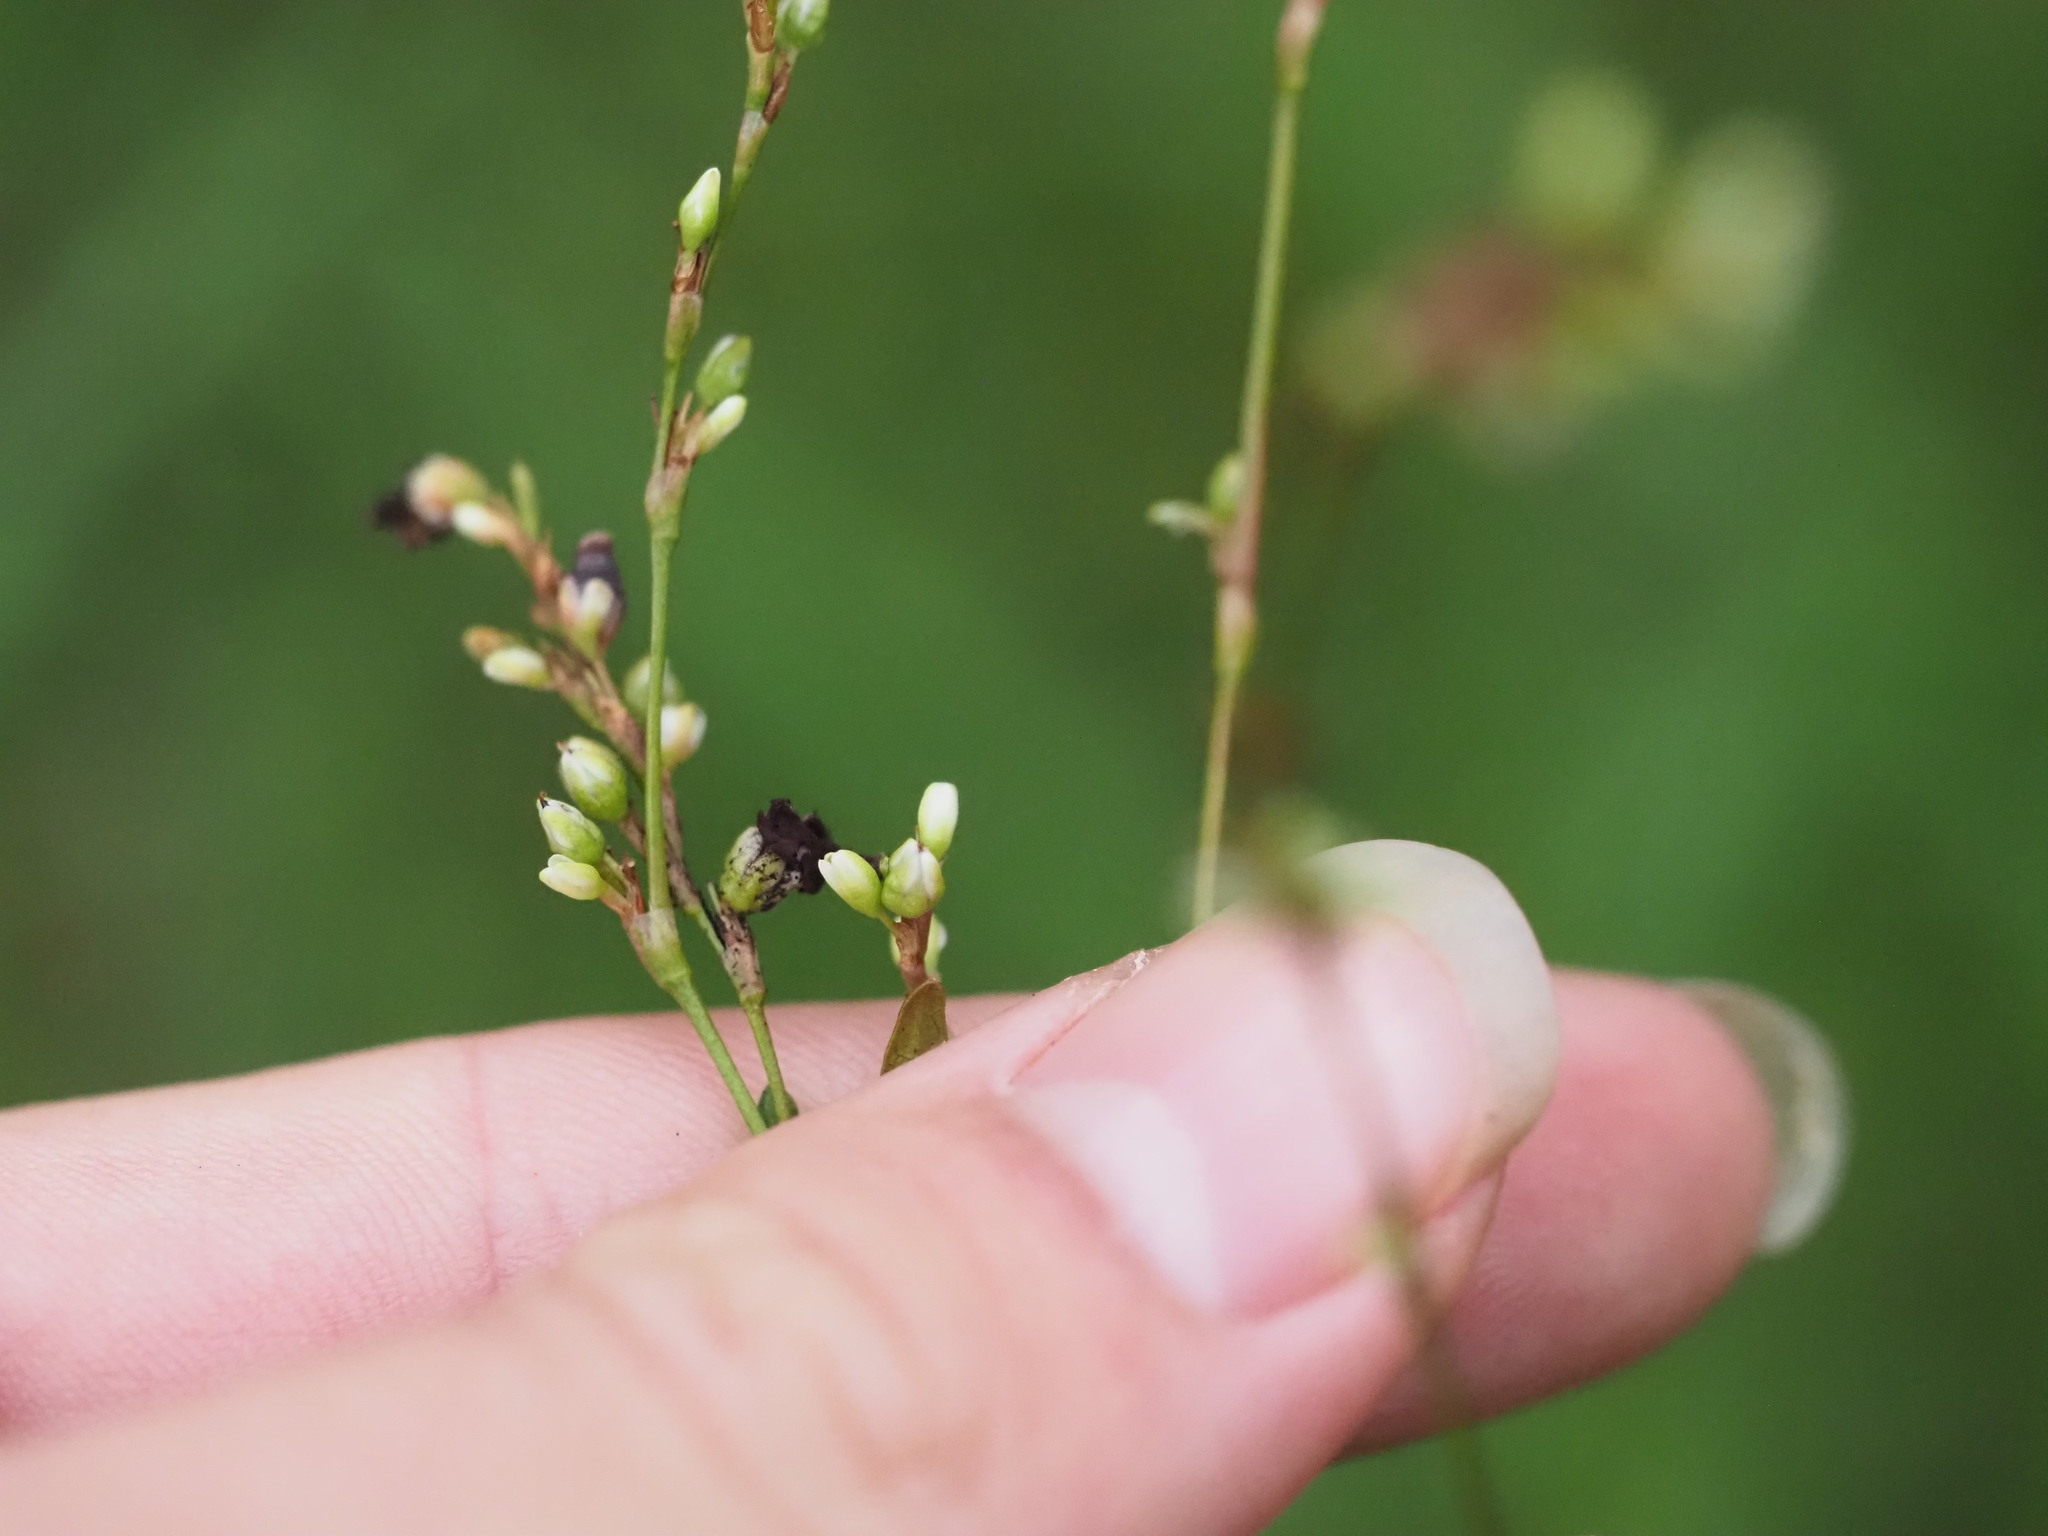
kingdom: Plantae
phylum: Tracheophyta
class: Magnoliopsida
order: Caryophyllales
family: Polygonaceae
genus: Persicaria
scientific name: Persicaria punctata
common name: Dotted smartweed
